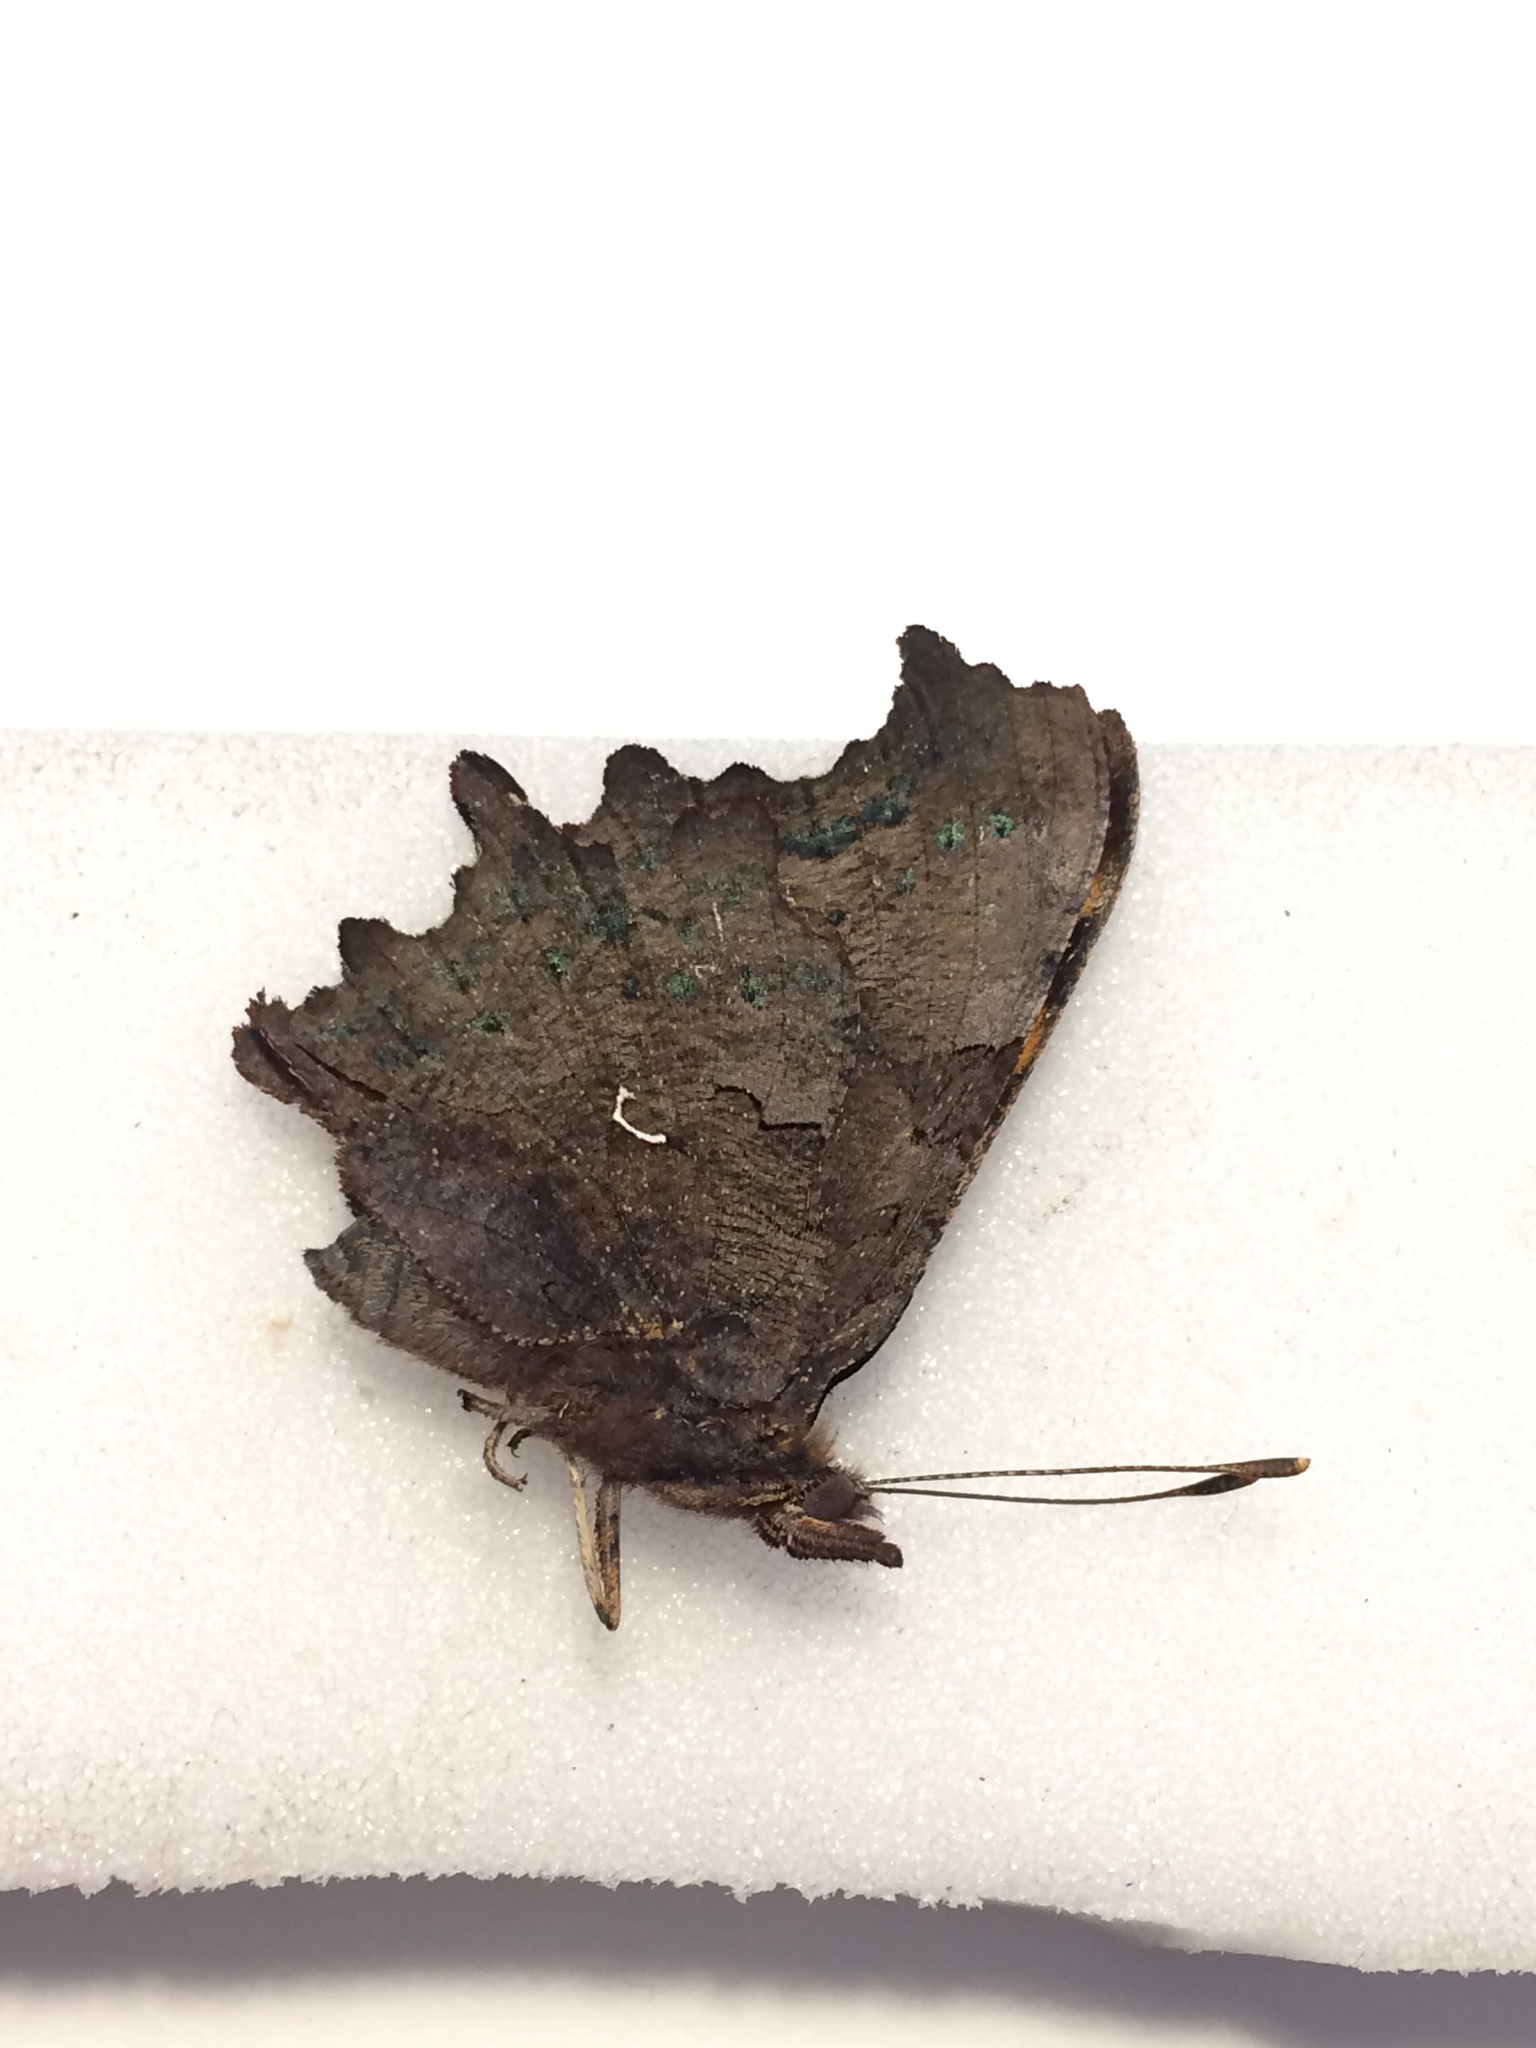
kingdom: Animalia
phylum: Arthropoda
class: Insecta
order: Lepidoptera
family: Nymphalidae
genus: Polygonia
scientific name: Polygonia c-album
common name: Comma
